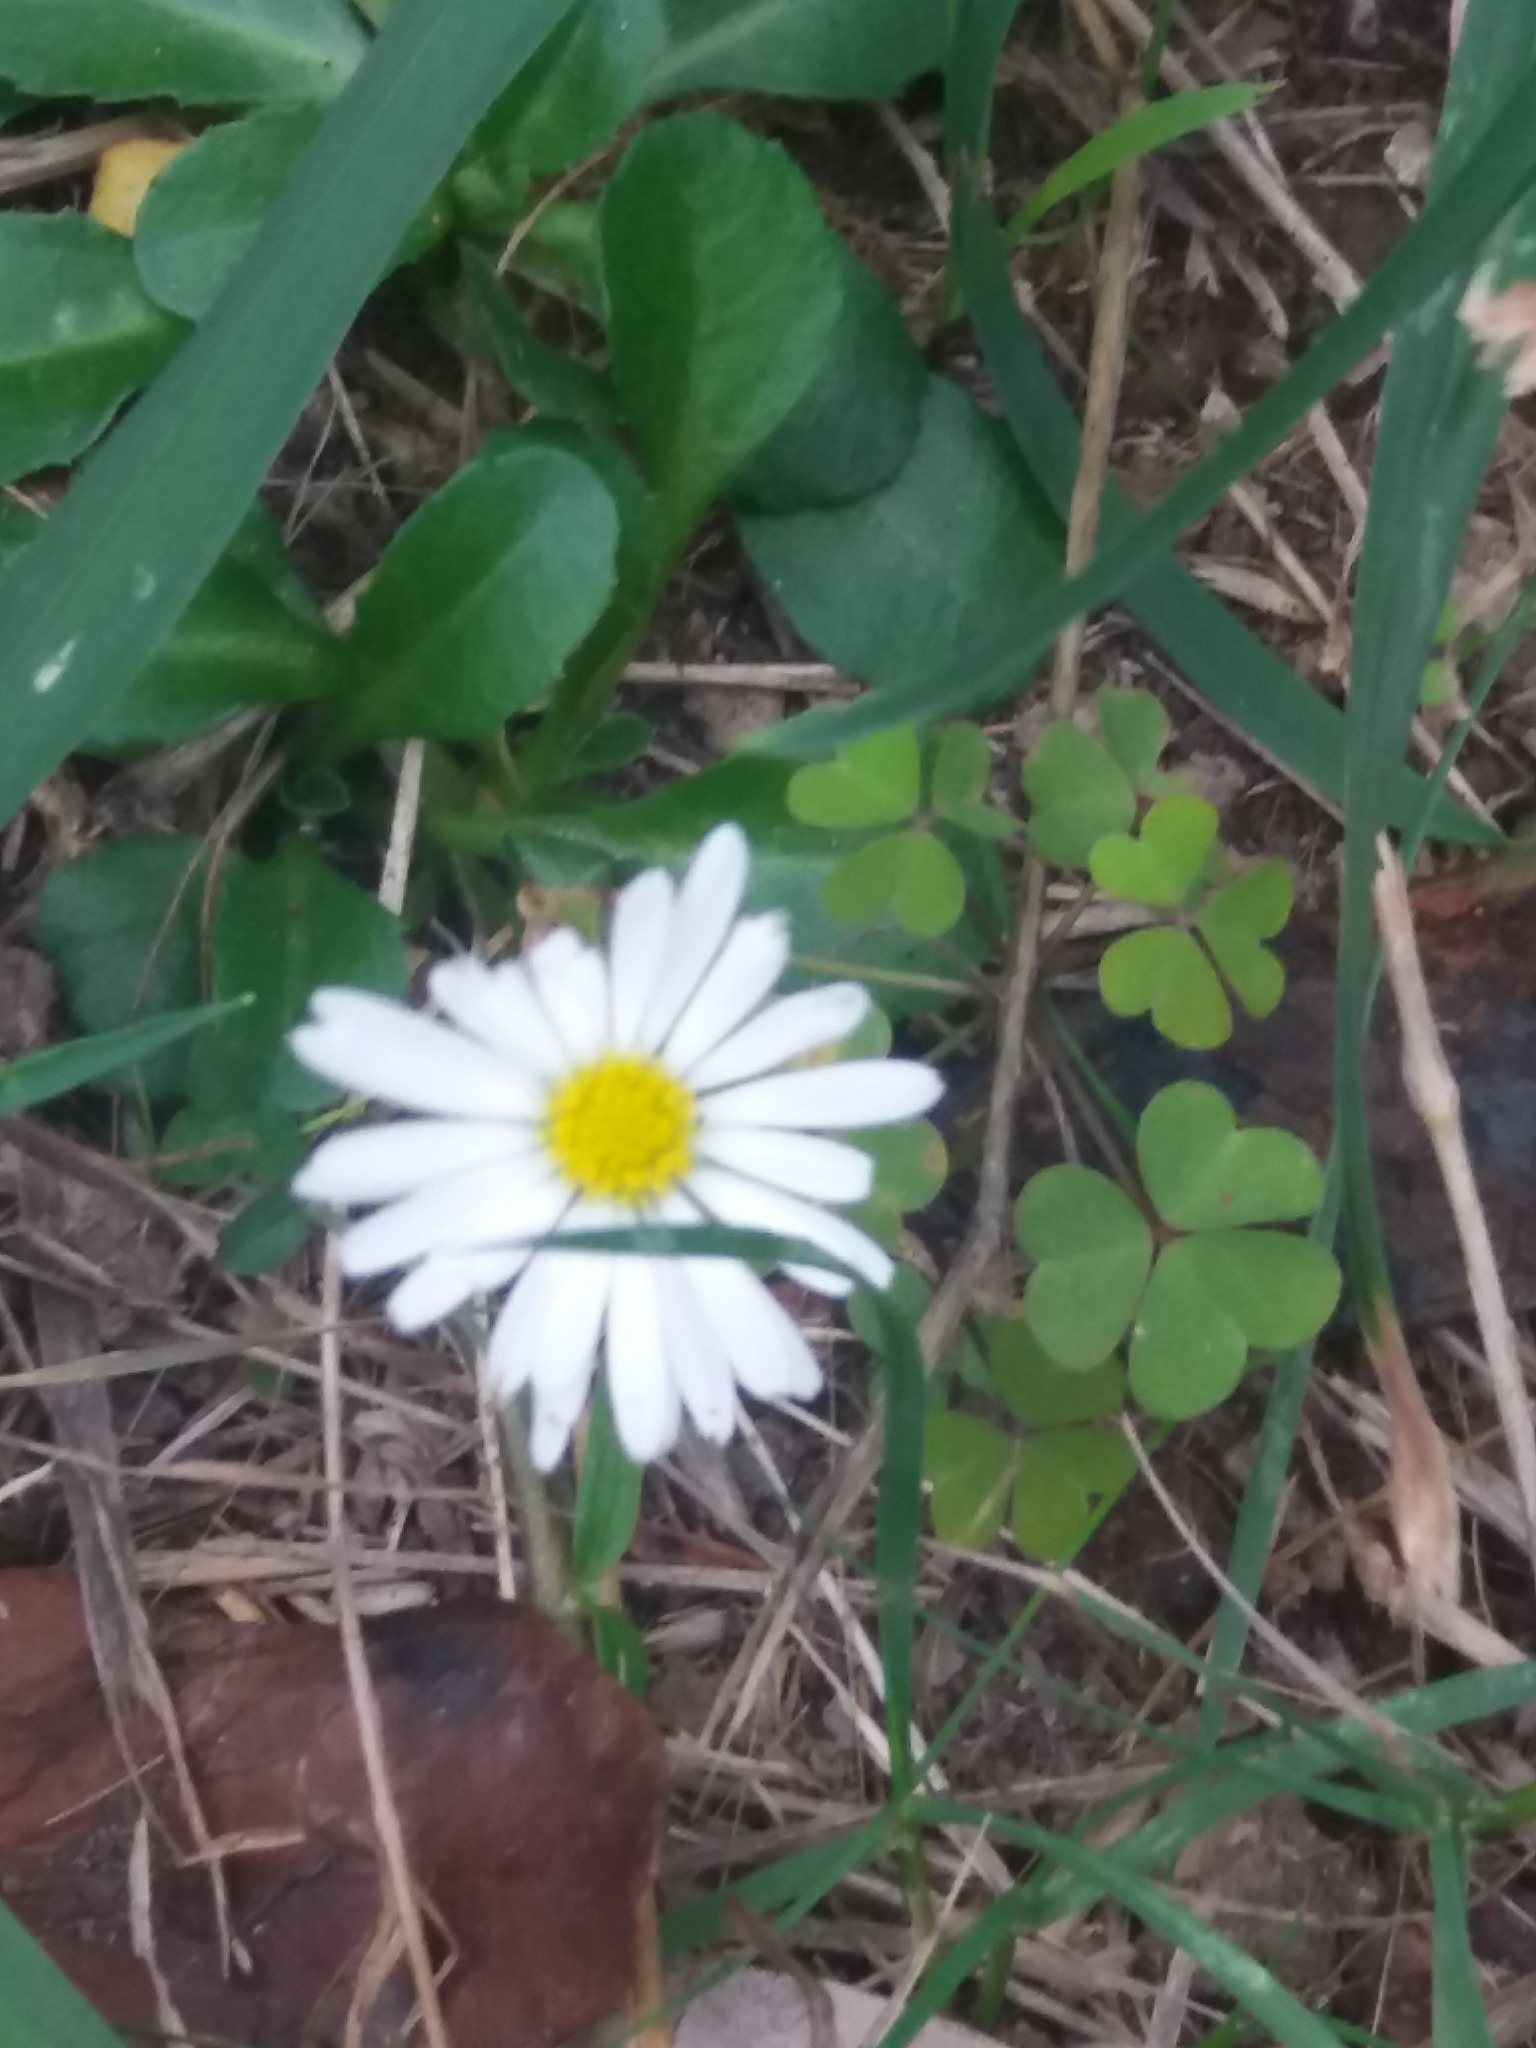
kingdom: Plantae
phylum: Tracheophyta
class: Magnoliopsida
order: Asterales
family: Asteraceae
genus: Bellis
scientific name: Bellis perennis
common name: Lawndaisy
